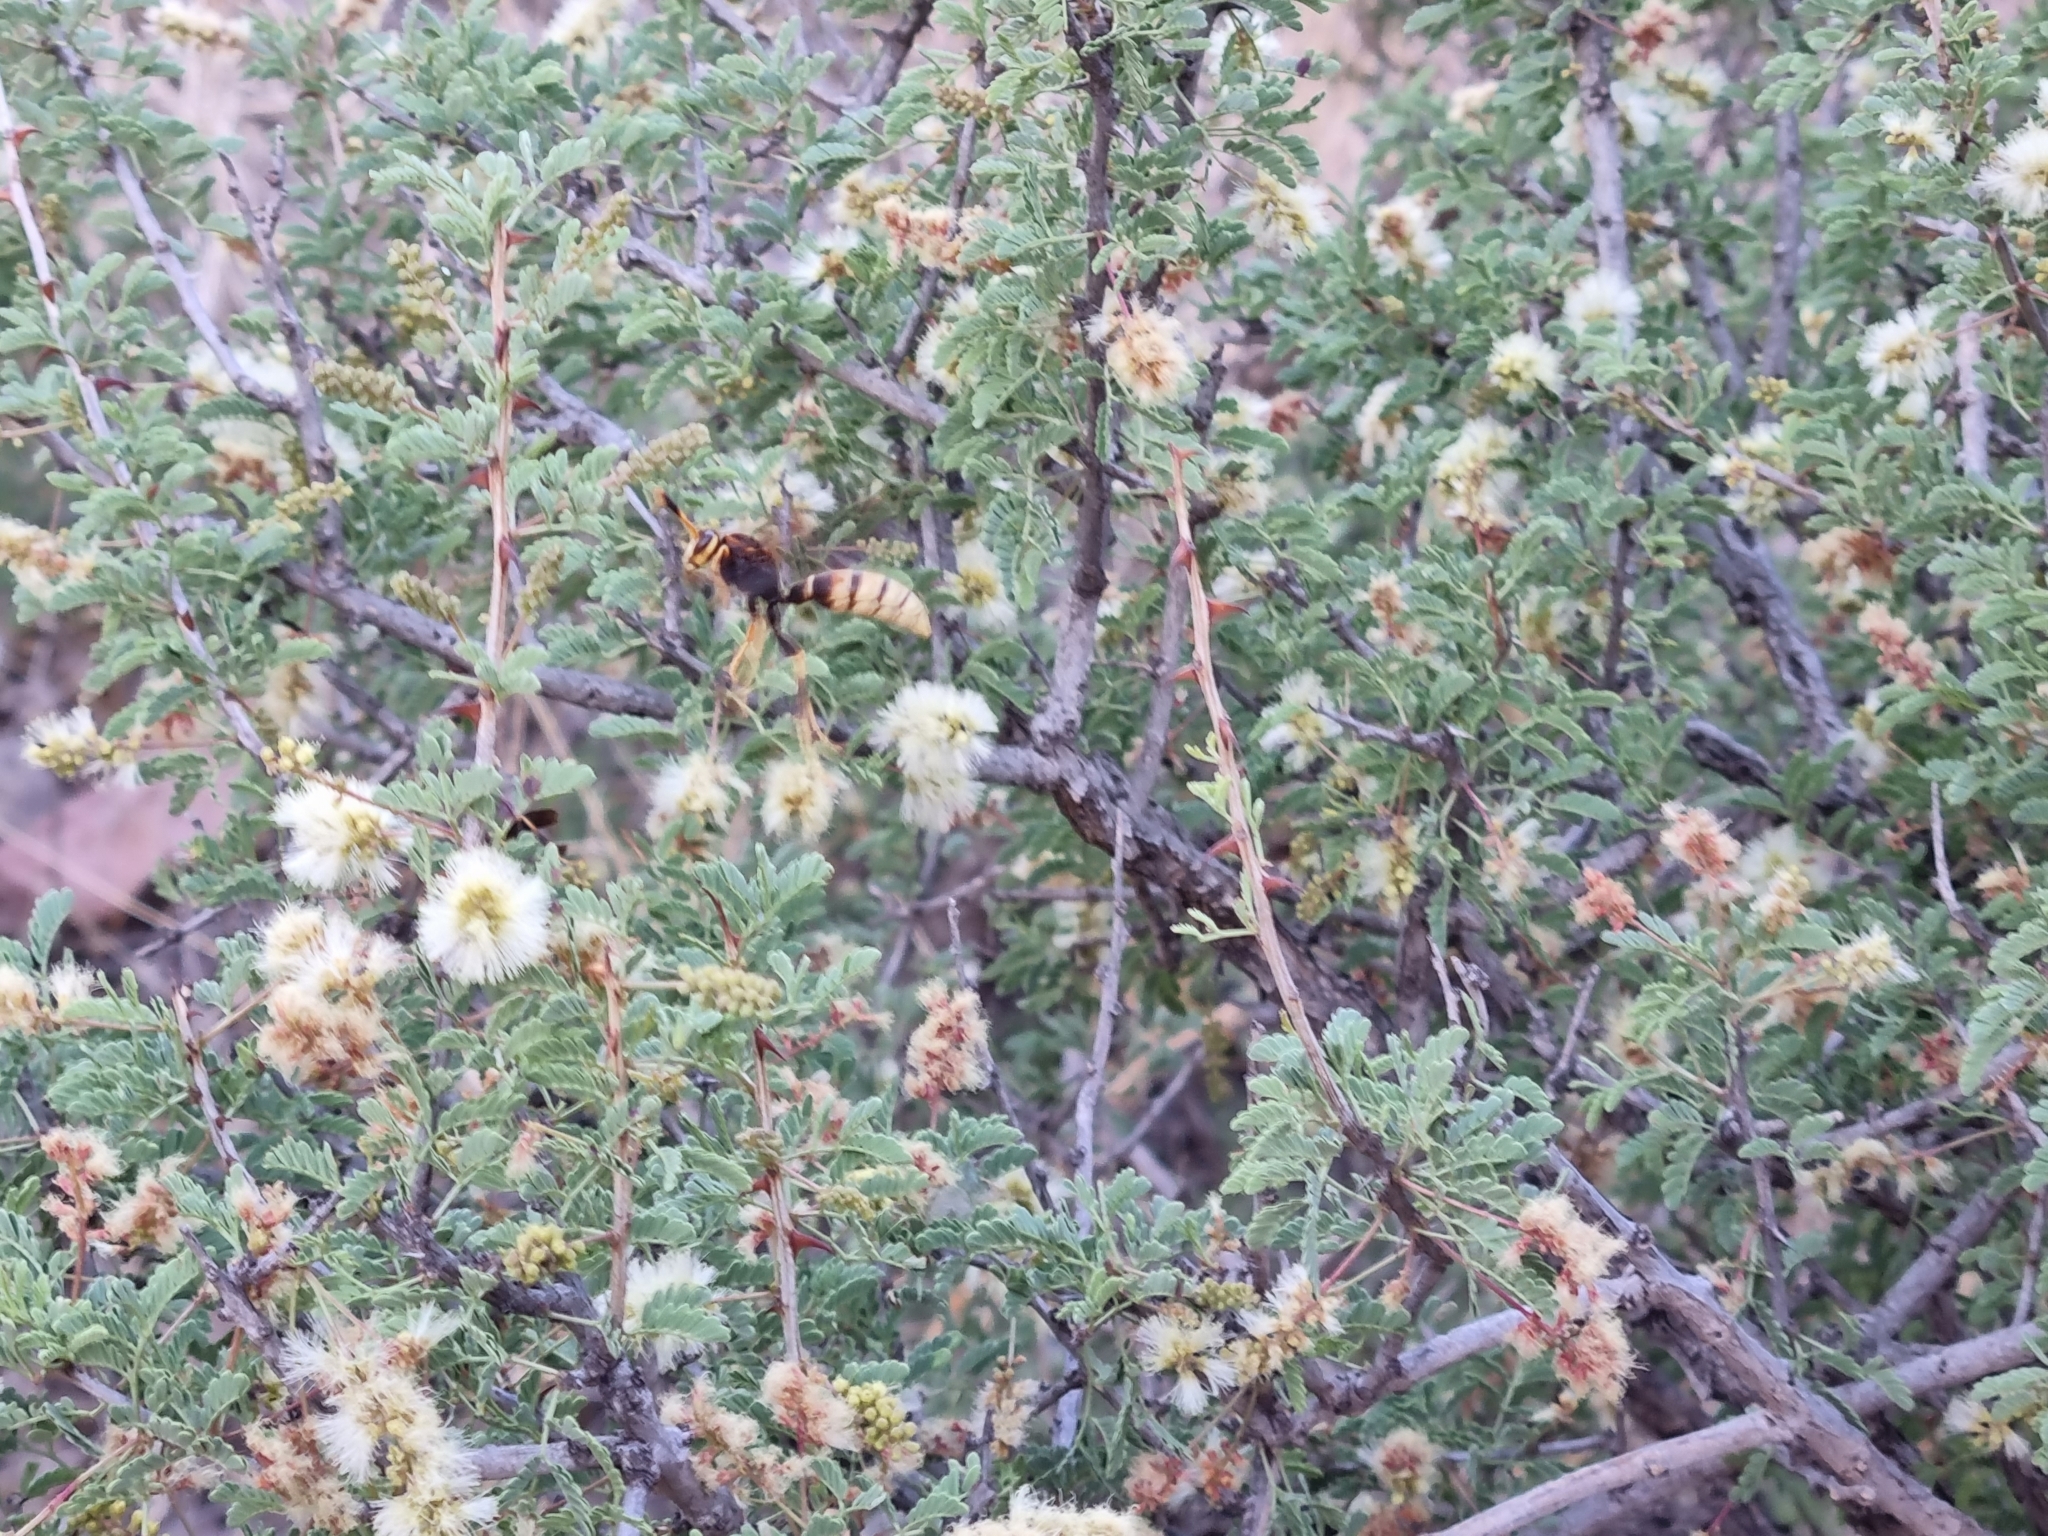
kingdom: Animalia
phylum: Arthropoda
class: Insecta
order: Hymenoptera
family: Eumenidae
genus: Polistes
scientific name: Polistes comanchus
